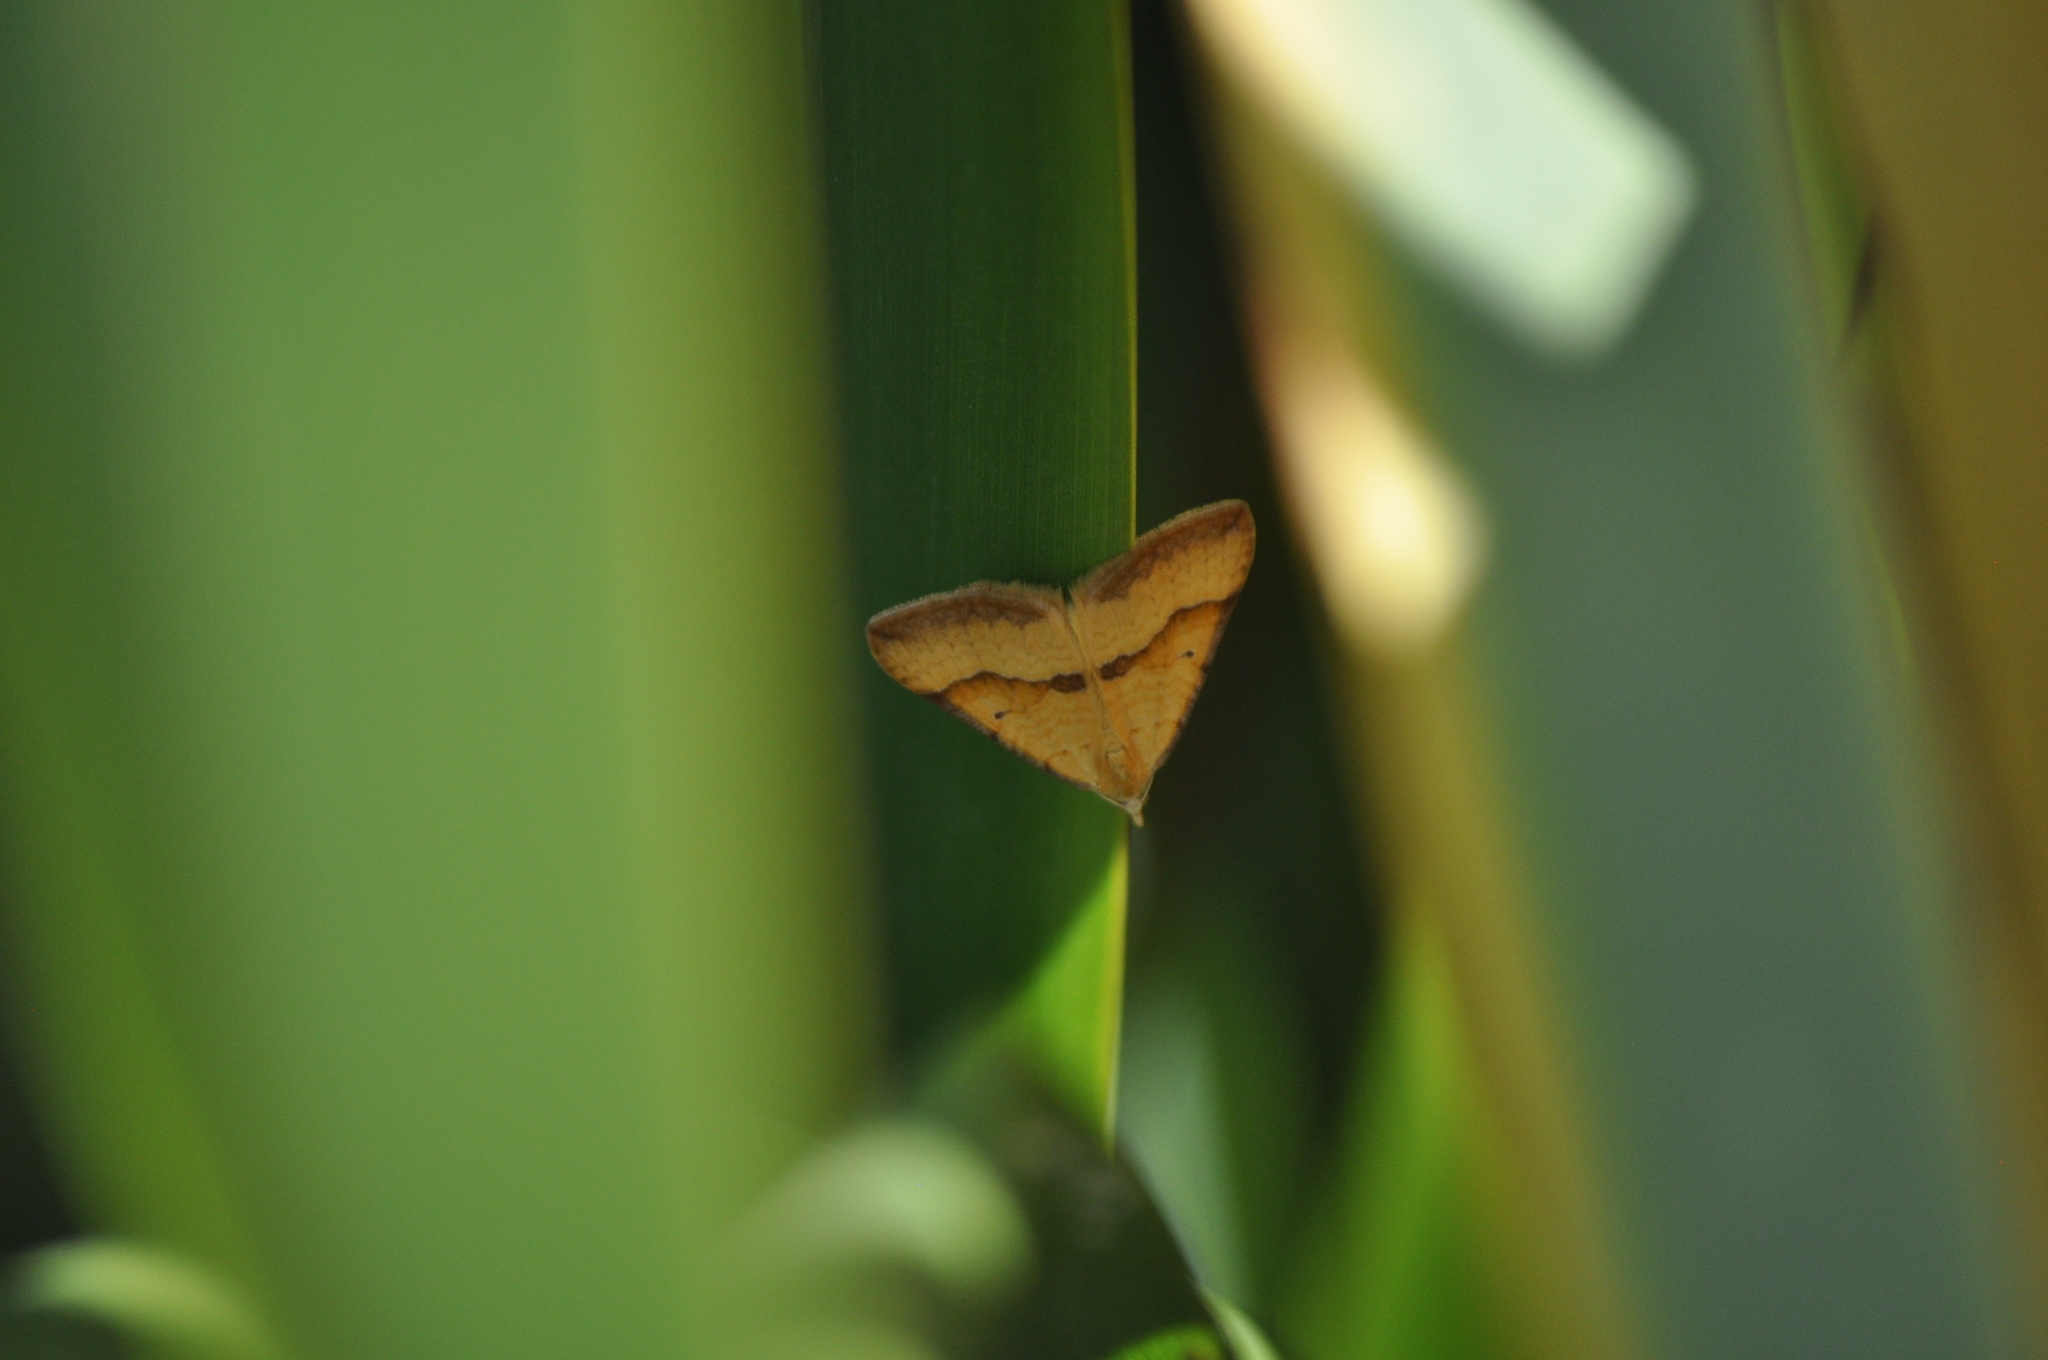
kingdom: Animalia
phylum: Arthropoda
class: Insecta
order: Lepidoptera
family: Geometridae
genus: Anachloris
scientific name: Anachloris subochraria
